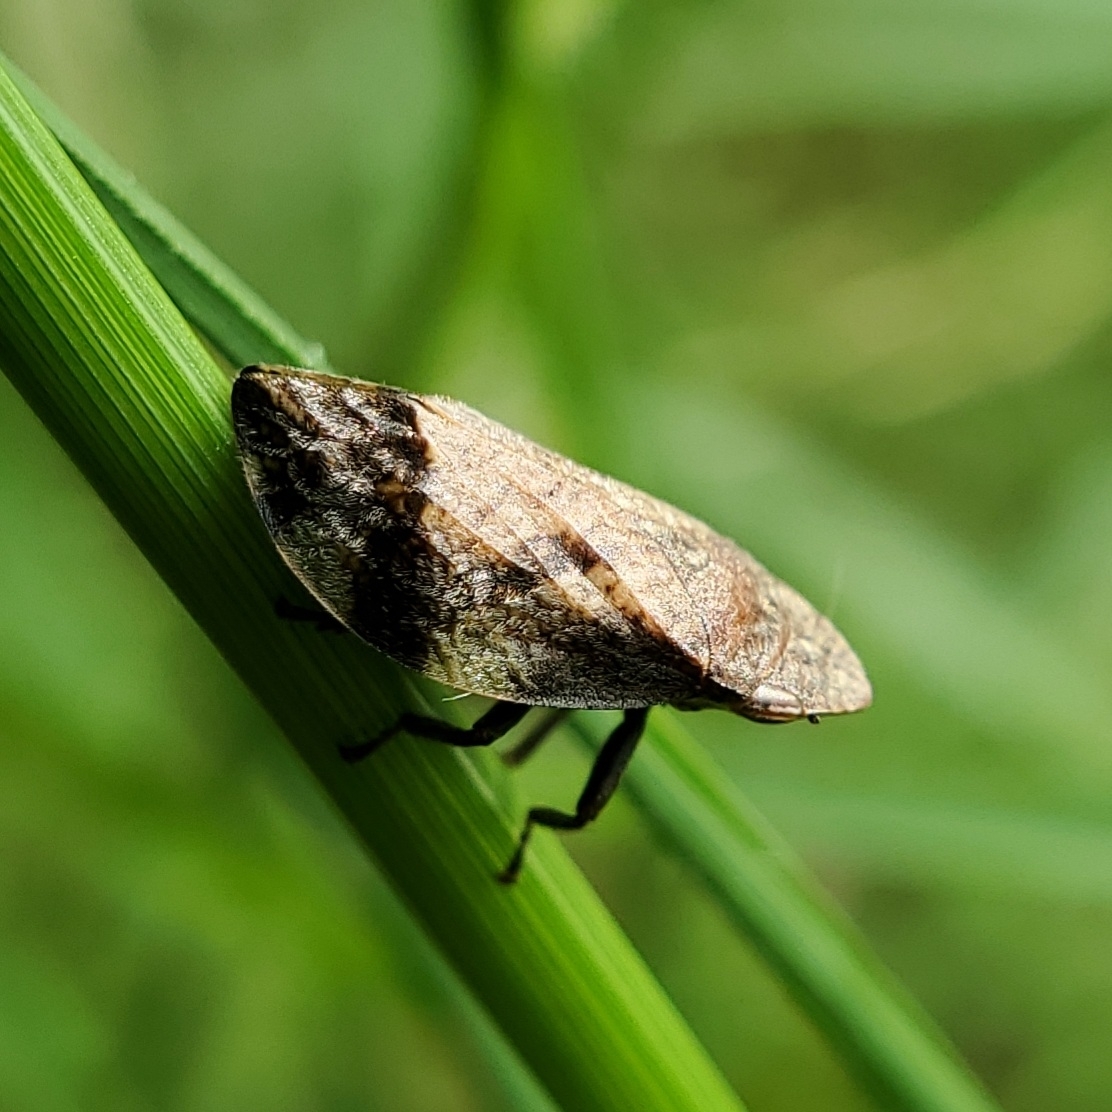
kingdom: Animalia
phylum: Arthropoda
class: Insecta
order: Hemiptera
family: Aphrophoridae
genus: Lepyronia
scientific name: Lepyronia quadrangularis
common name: Diamond-backed spittlebug
